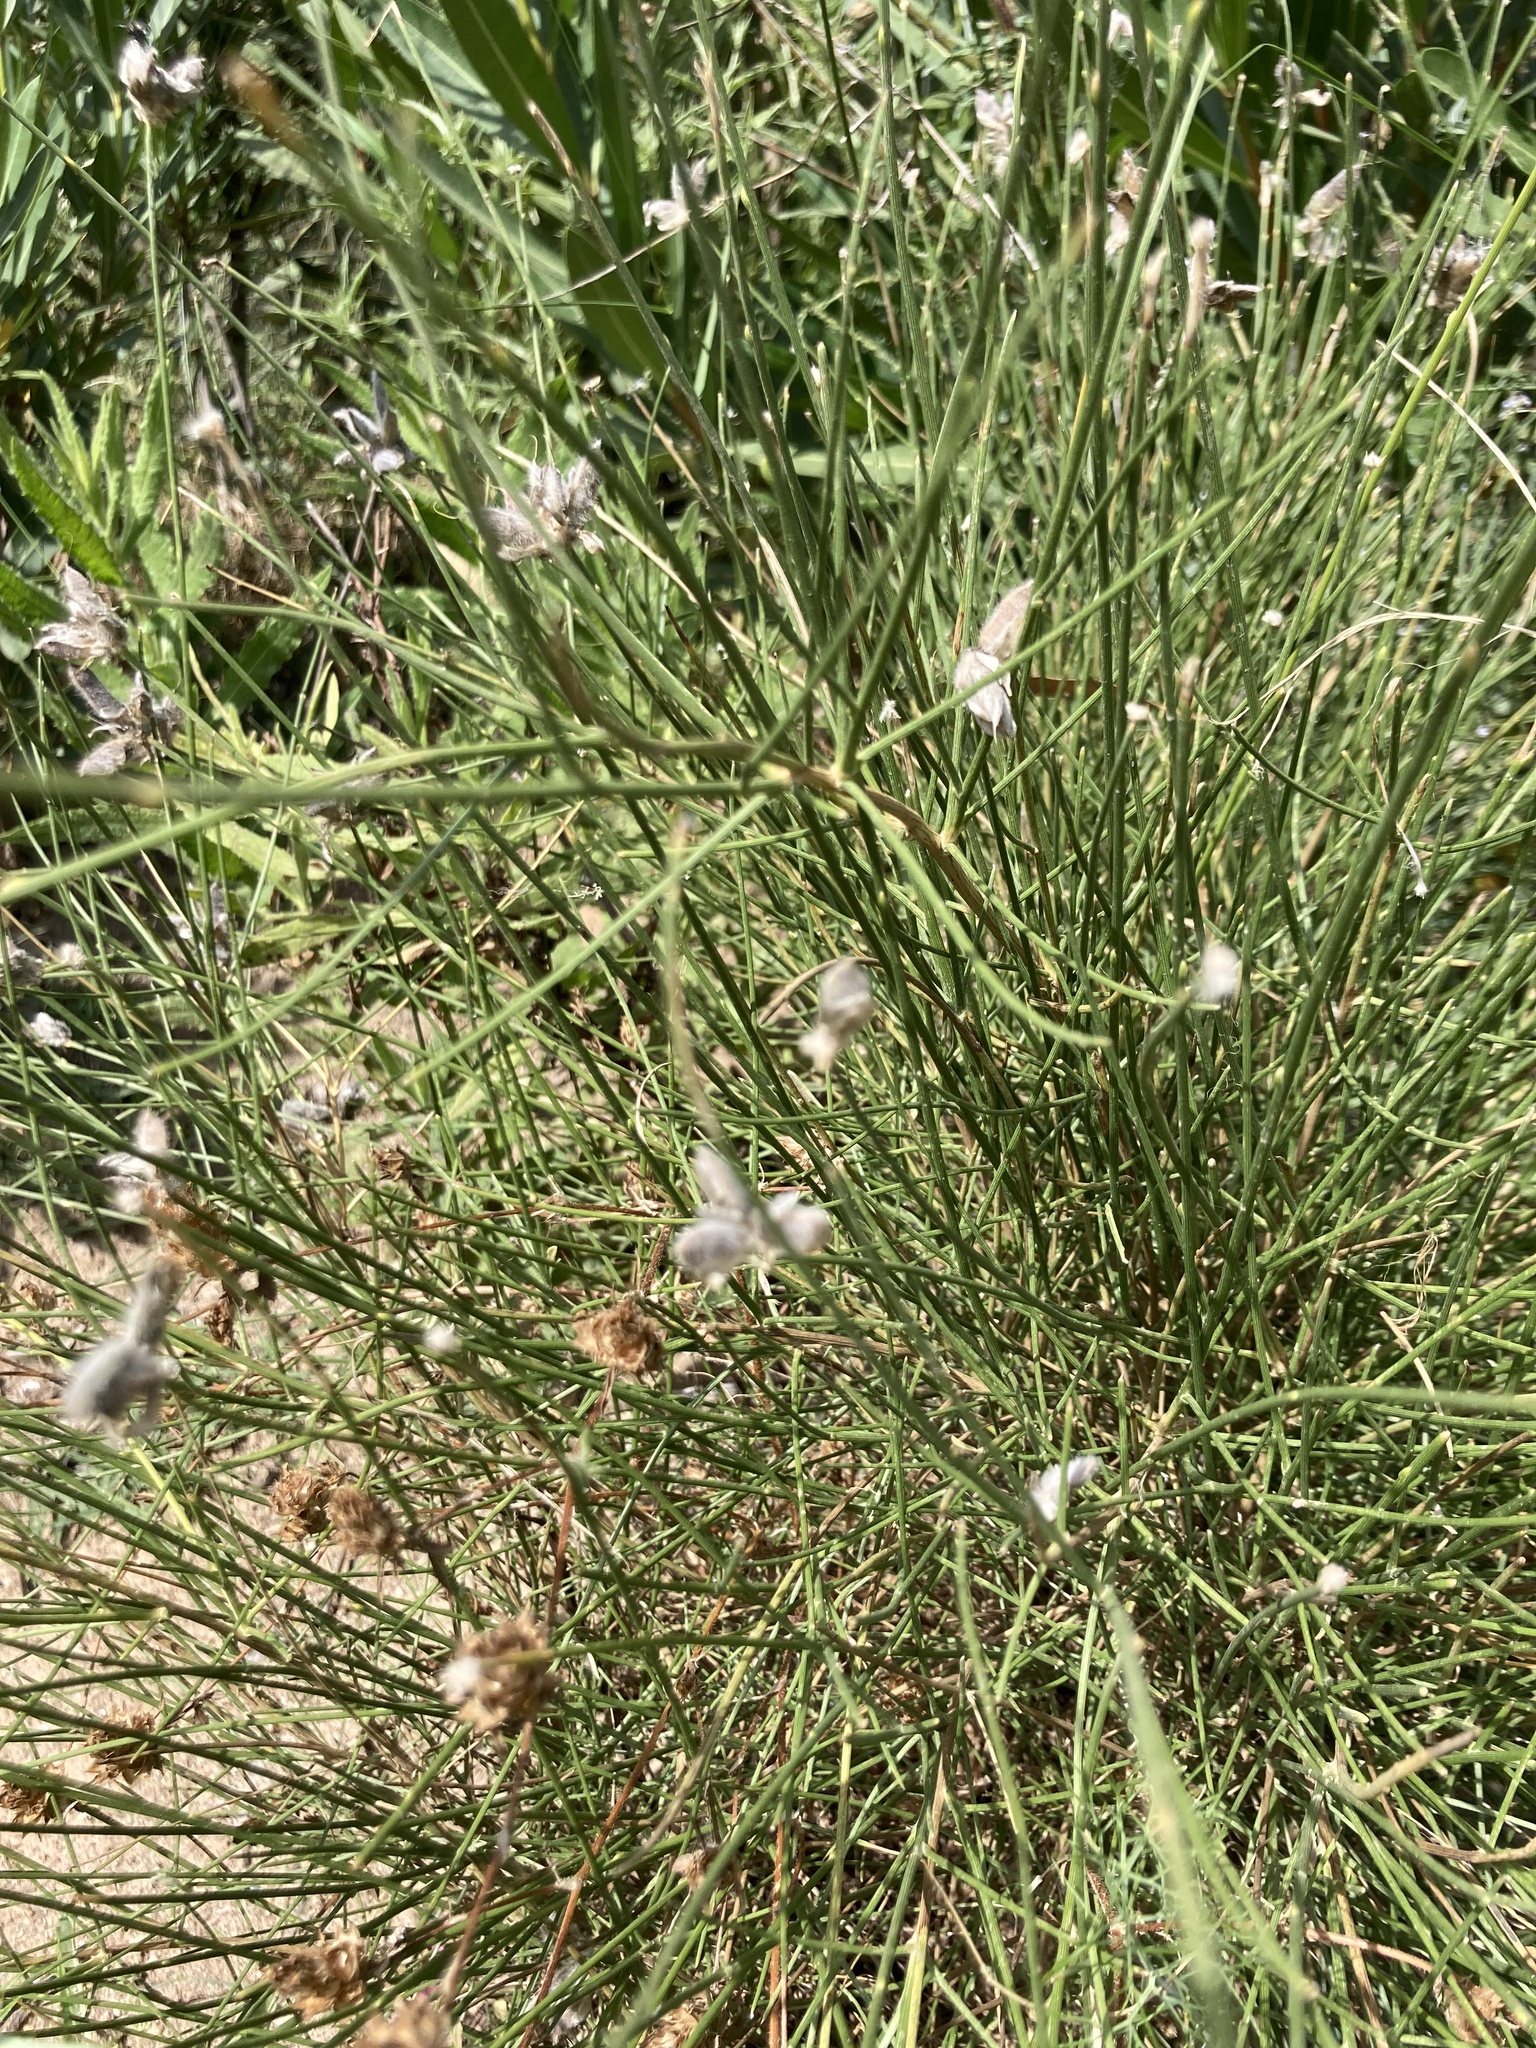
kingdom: Plantae
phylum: Tracheophyta
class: Magnoliopsida
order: Fabales
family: Fabaceae
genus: Genista
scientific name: Genista umbellata
